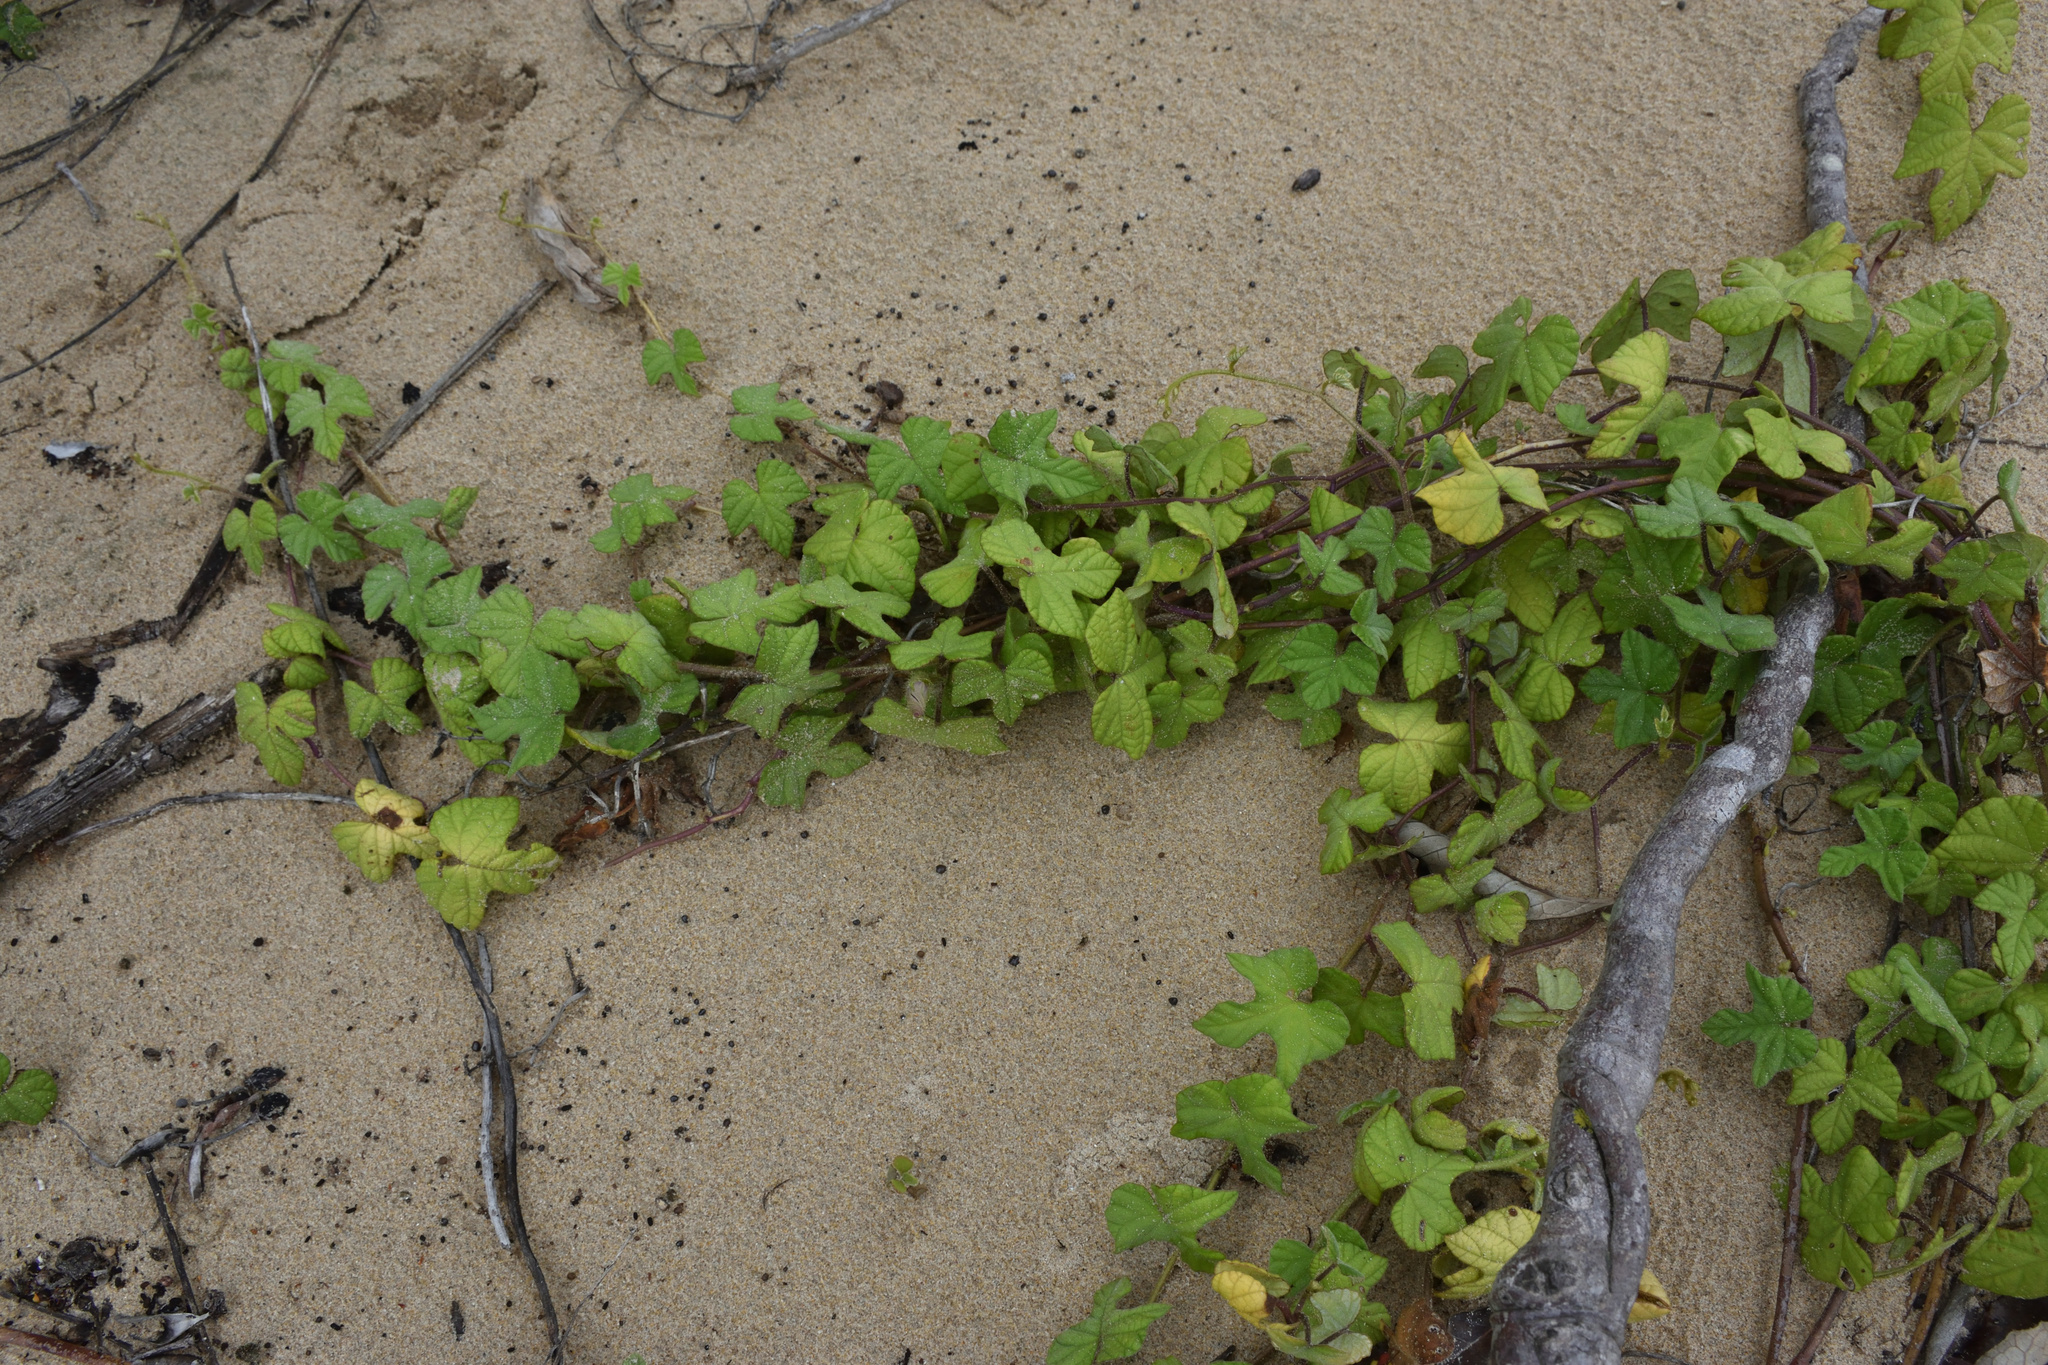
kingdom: Plantae
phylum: Tracheophyta
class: Magnoliopsida
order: Solanales
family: Convolvulaceae
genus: Ipomoea
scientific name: Ipomoea ficifolia
